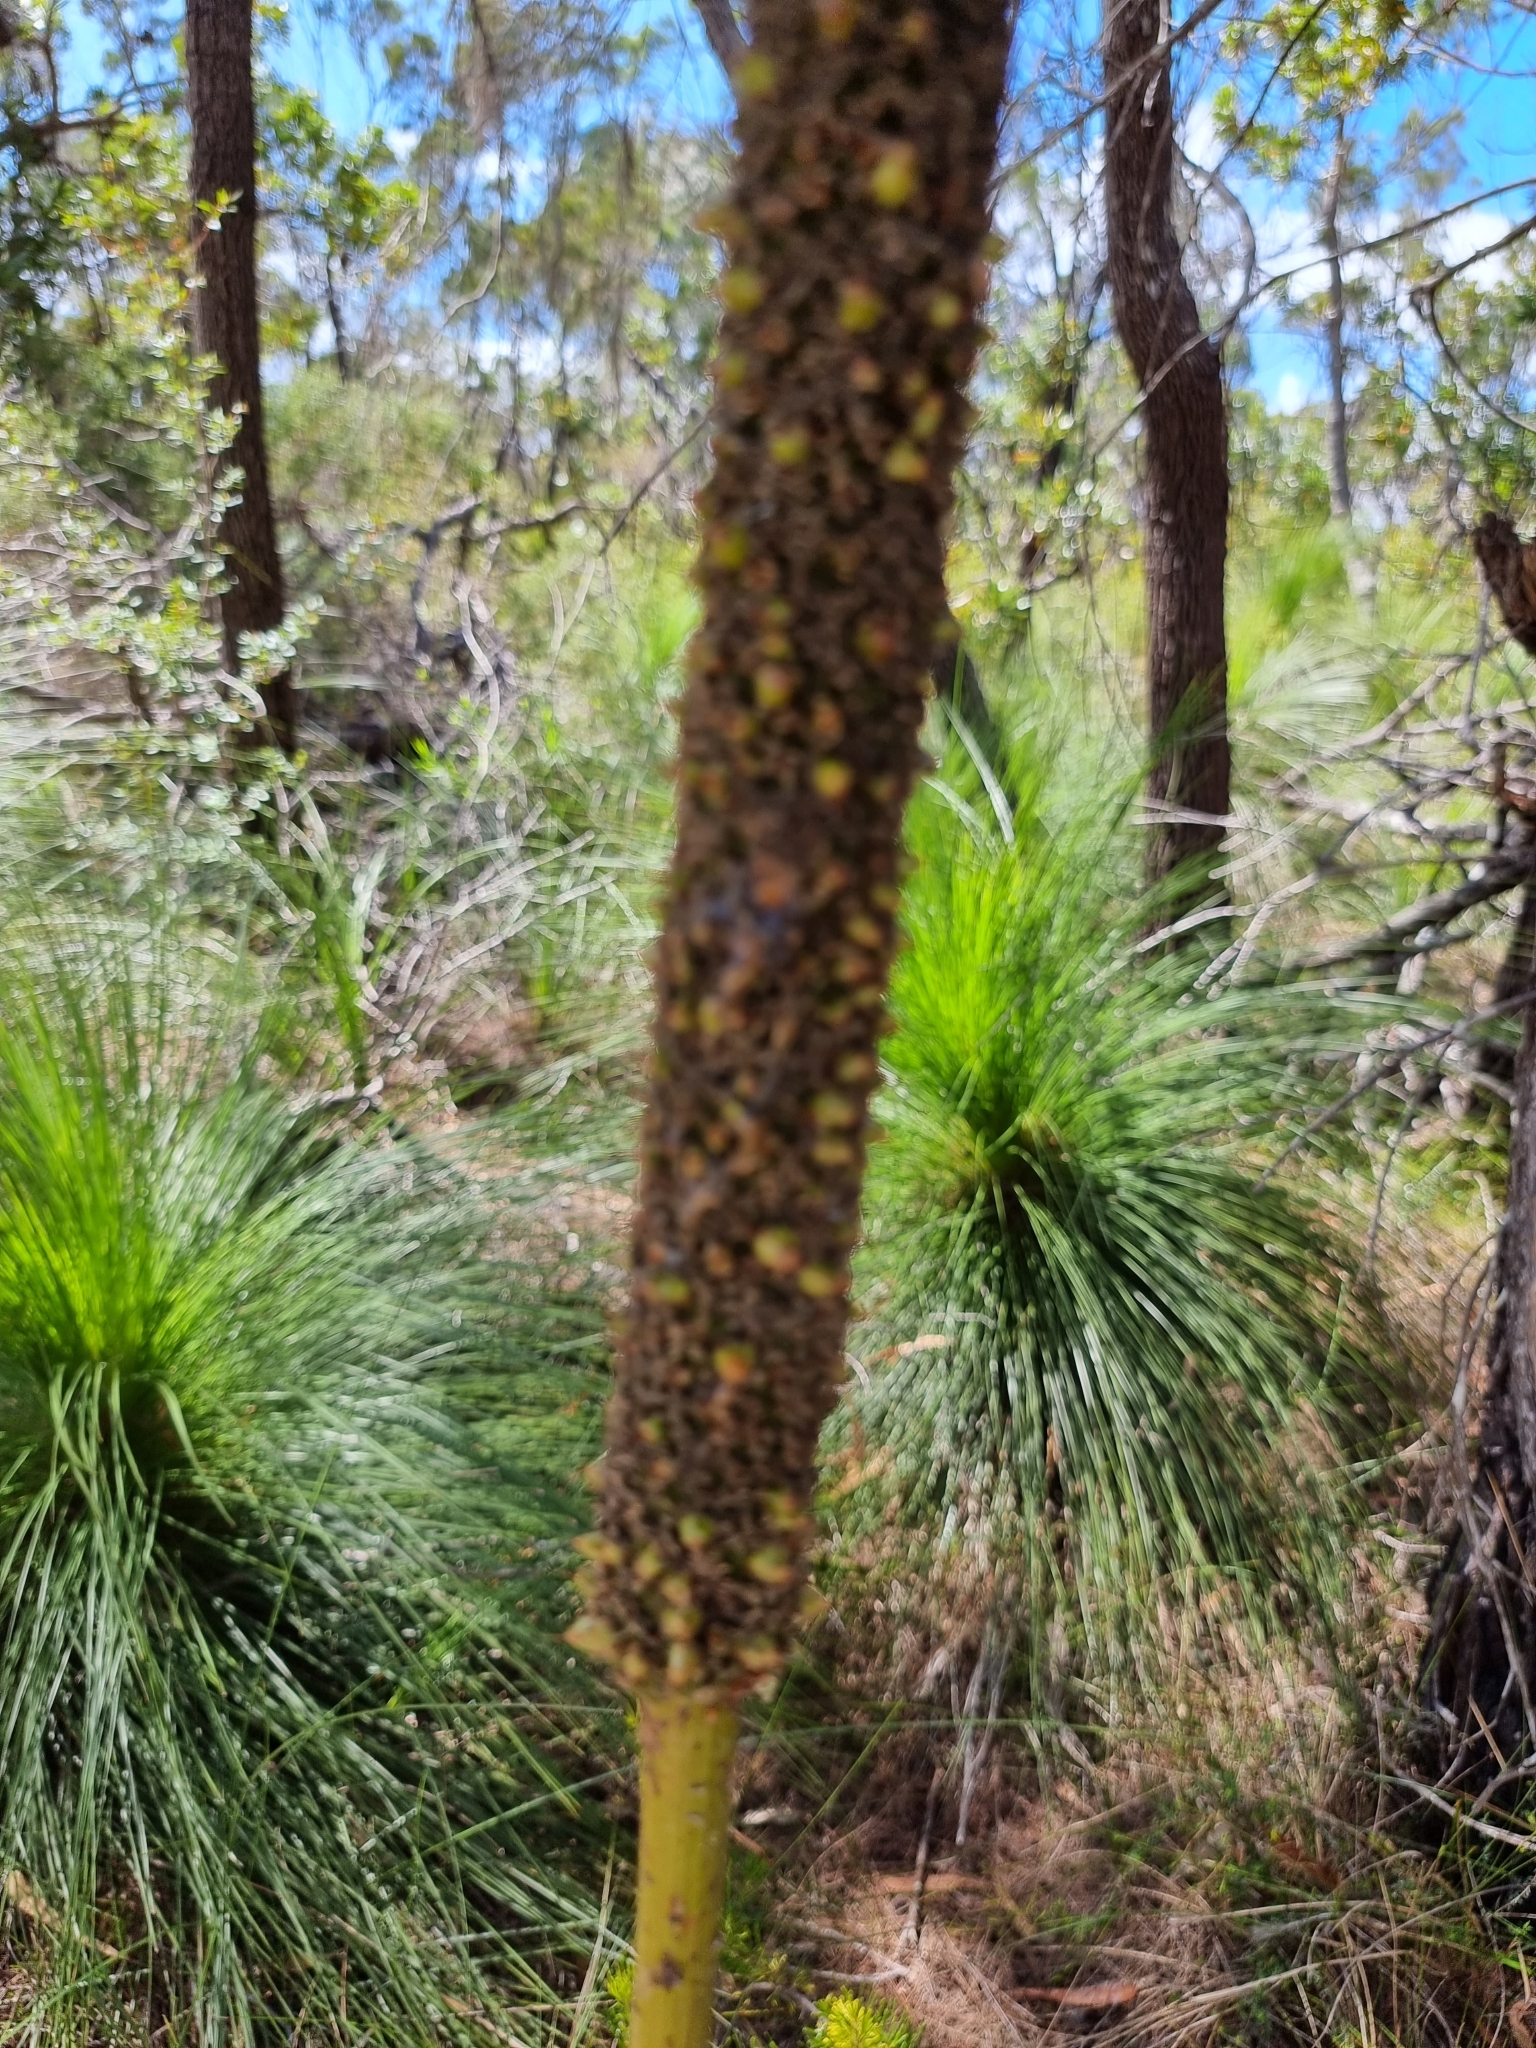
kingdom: Plantae
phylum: Tracheophyta
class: Liliopsida
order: Asparagales
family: Asphodelaceae
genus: Xanthorrhoea
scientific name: Xanthorrhoea johnsonii
